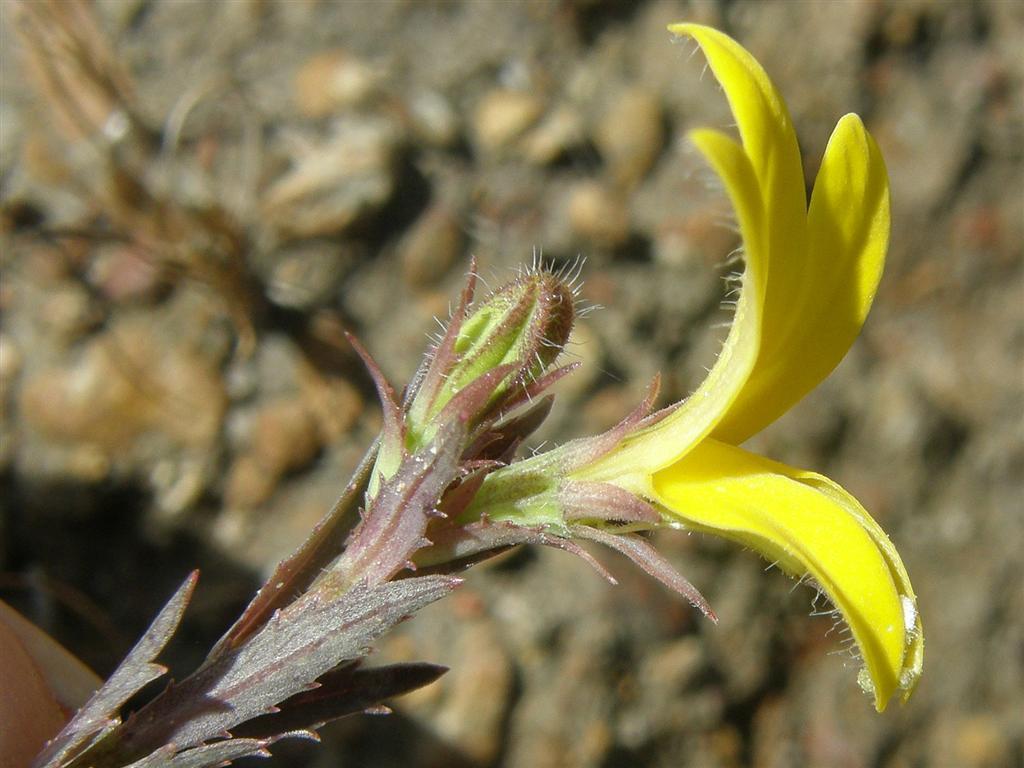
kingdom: Plantae
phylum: Tracheophyta
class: Magnoliopsida
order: Asterales
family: Campanulaceae
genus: Monopsis
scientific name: Monopsis lutea
